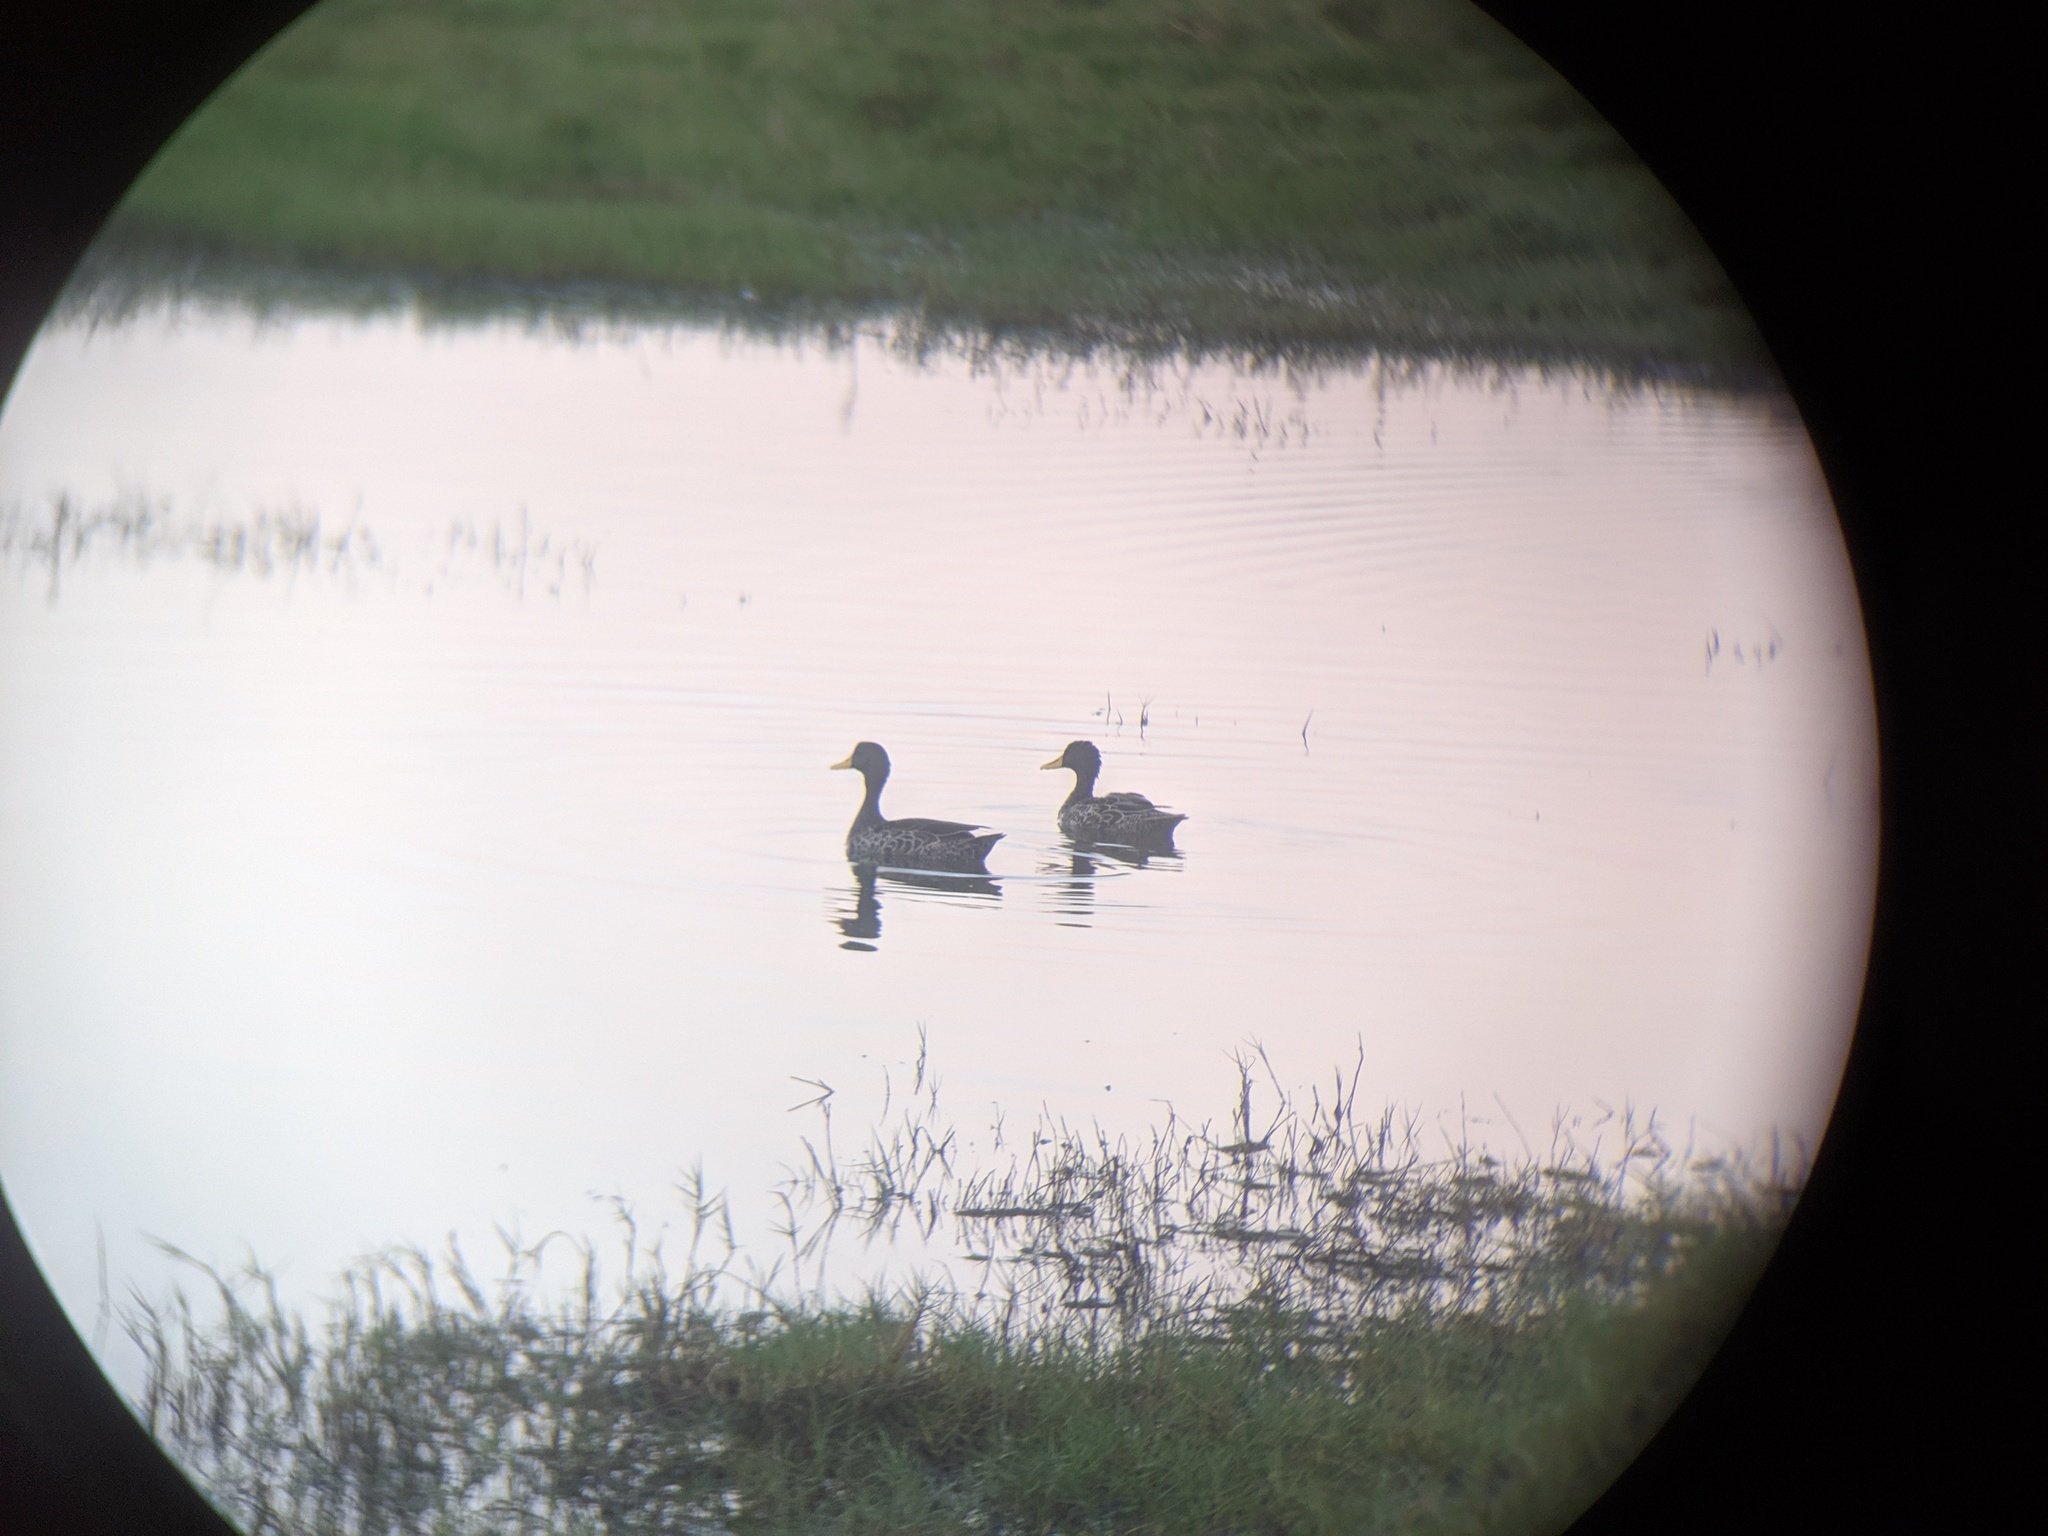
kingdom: Animalia
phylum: Chordata
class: Aves
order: Anseriformes
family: Anatidae
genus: Anas
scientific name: Anas undulata
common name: Yellow-billed duck
